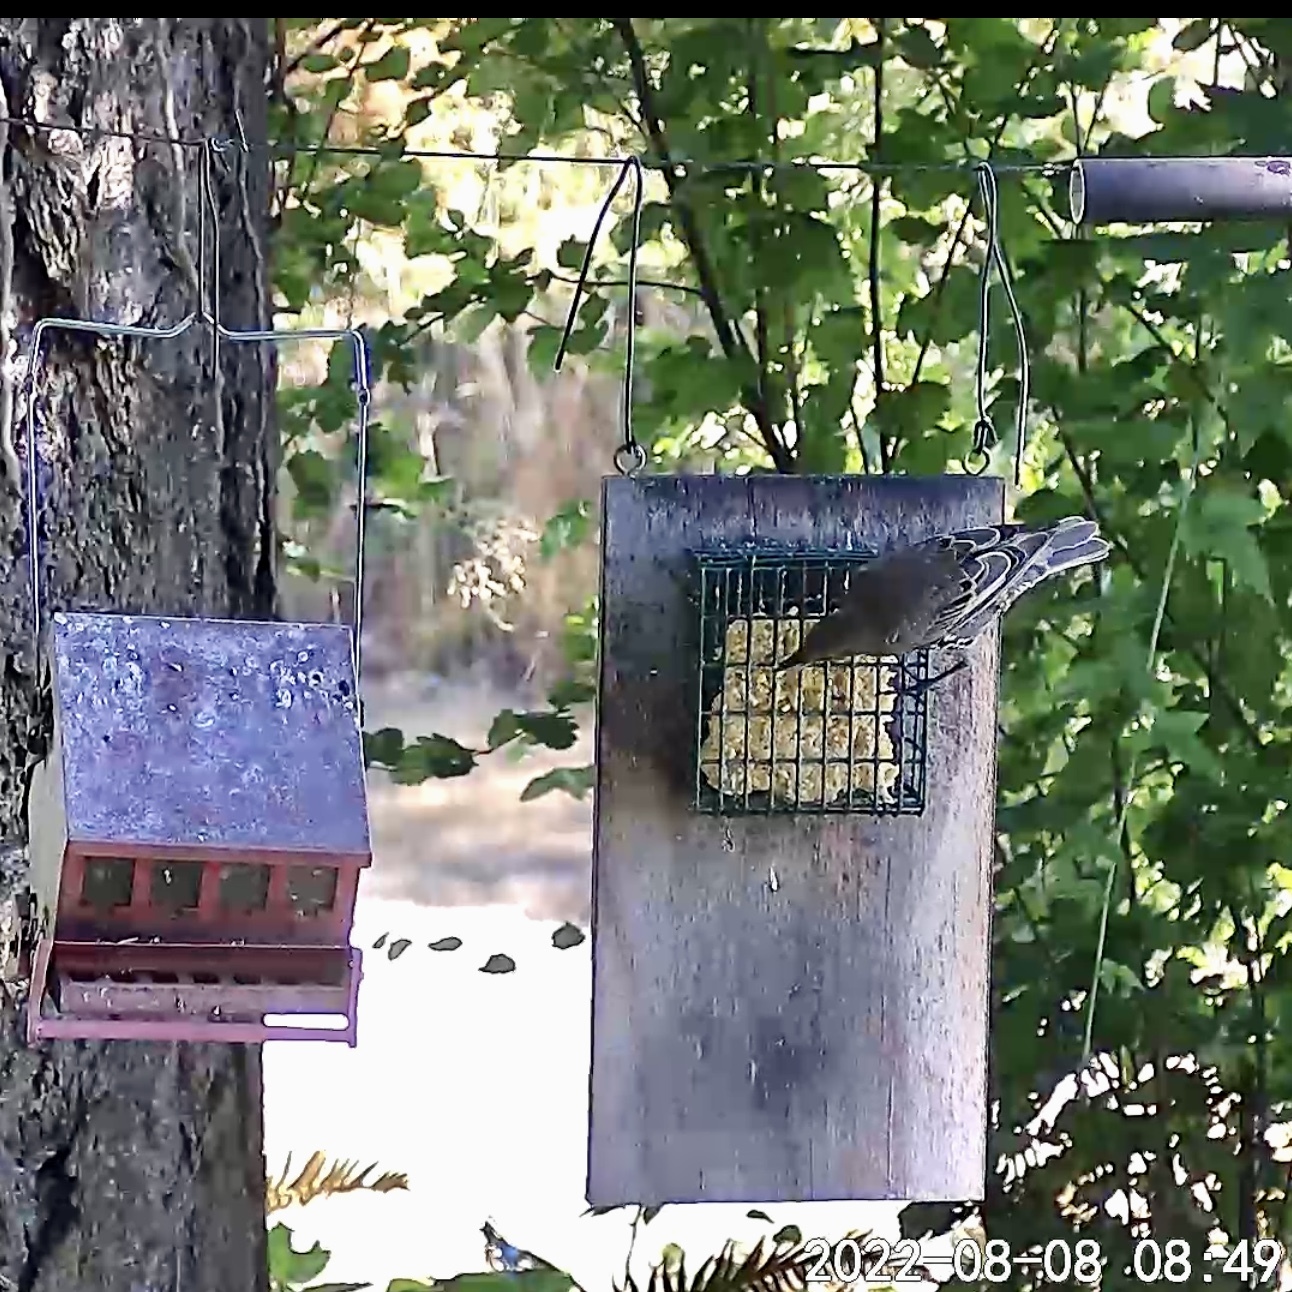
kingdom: Animalia
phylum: Chordata
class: Aves
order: Passeriformes
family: Sturnidae
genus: Sturnus
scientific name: Sturnus vulgaris
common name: Common starling
